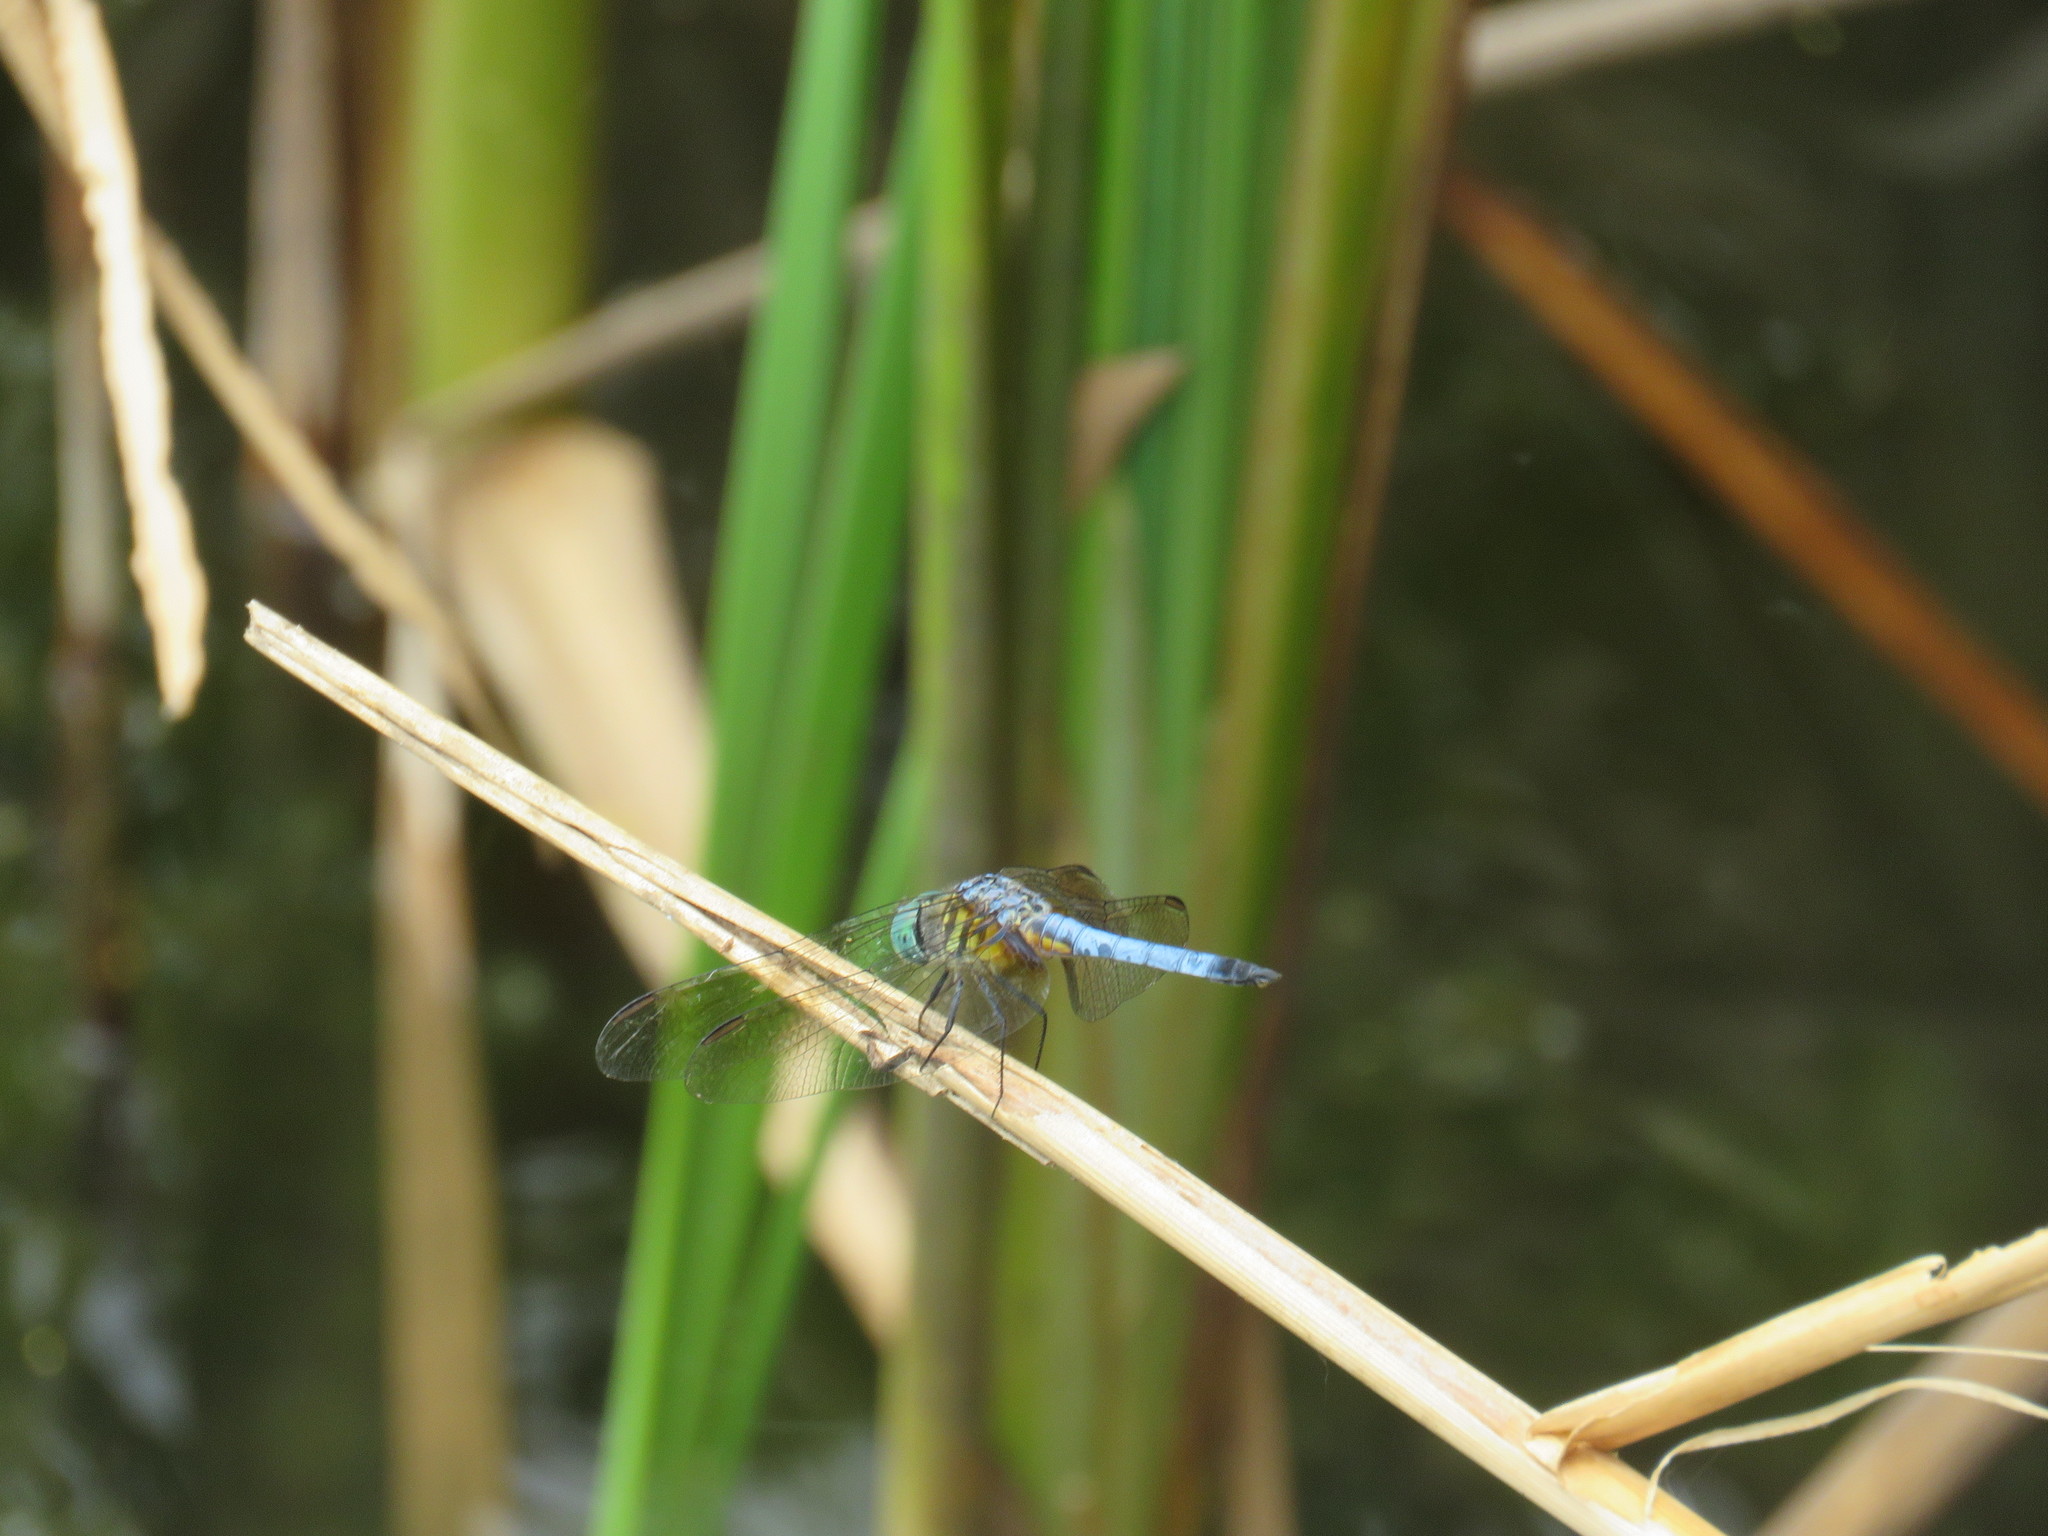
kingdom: Animalia
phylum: Arthropoda
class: Insecta
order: Odonata
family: Libellulidae
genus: Pachydiplax
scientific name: Pachydiplax longipennis
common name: Blue dasher
